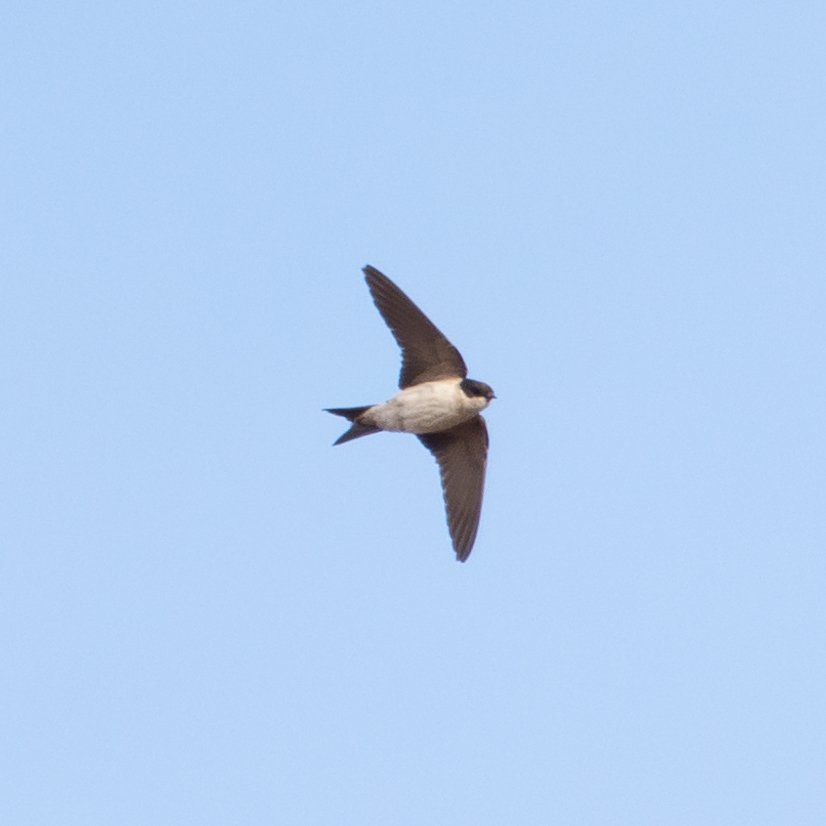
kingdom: Animalia
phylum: Chordata
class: Aves
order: Passeriformes
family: Hirundinidae
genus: Delichon
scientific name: Delichon urbicum
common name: Common house martin
